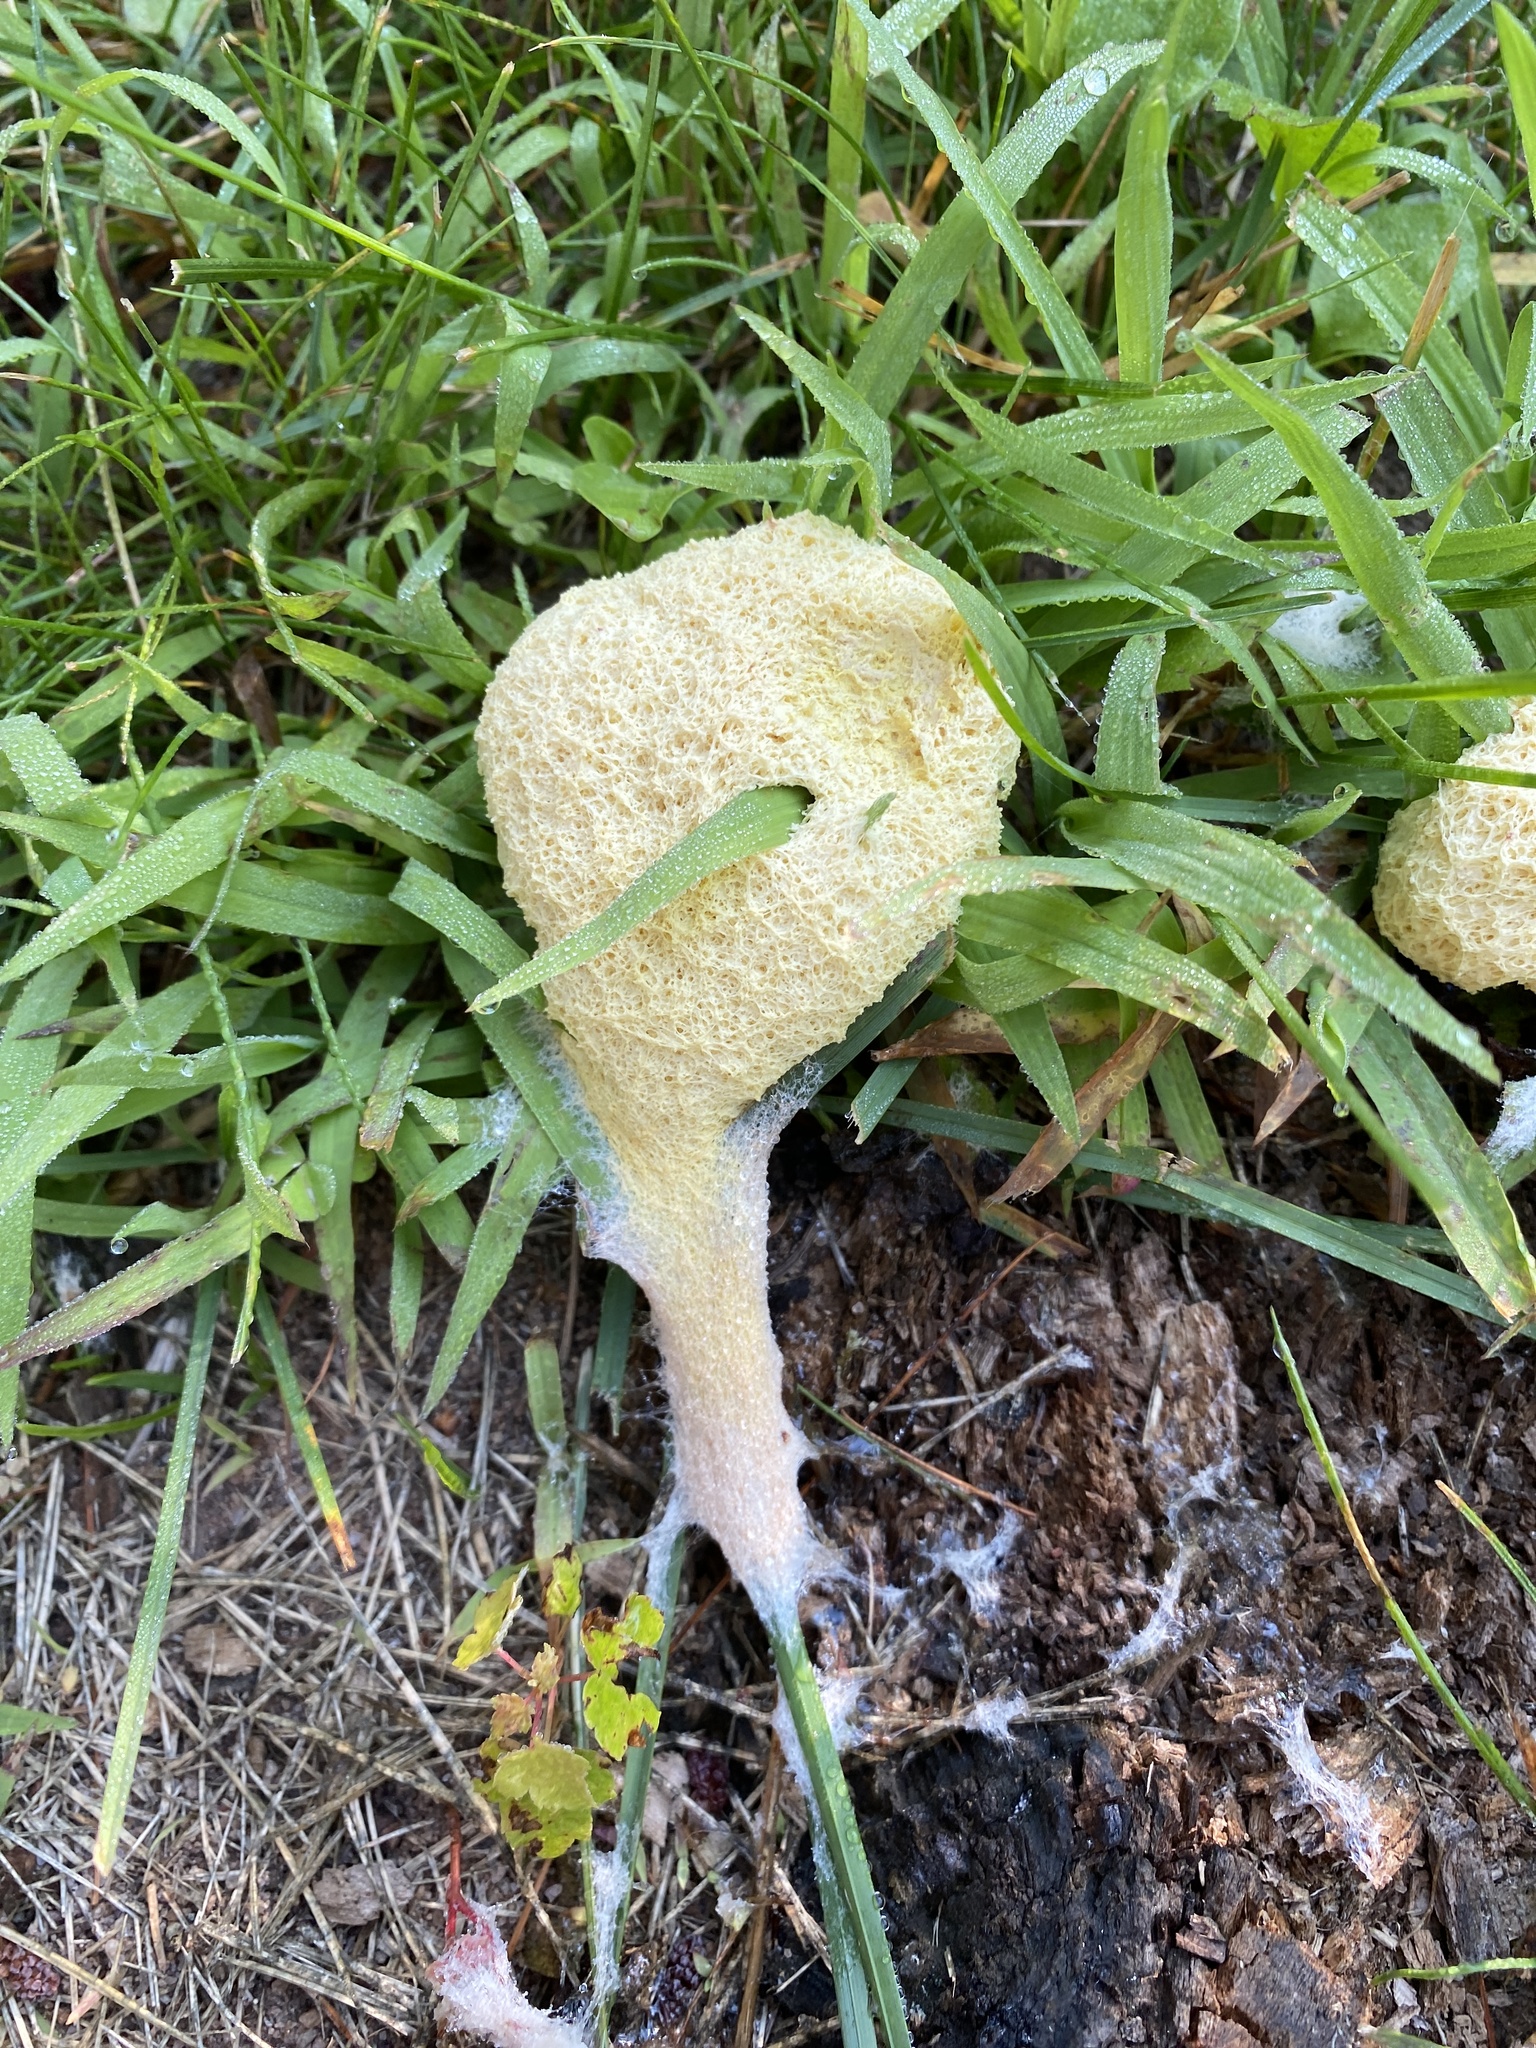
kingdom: Protozoa
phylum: Mycetozoa
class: Myxomycetes
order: Physarales
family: Physaraceae
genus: Fuligo
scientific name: Fuligo septica
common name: Dog vomit slime mold
